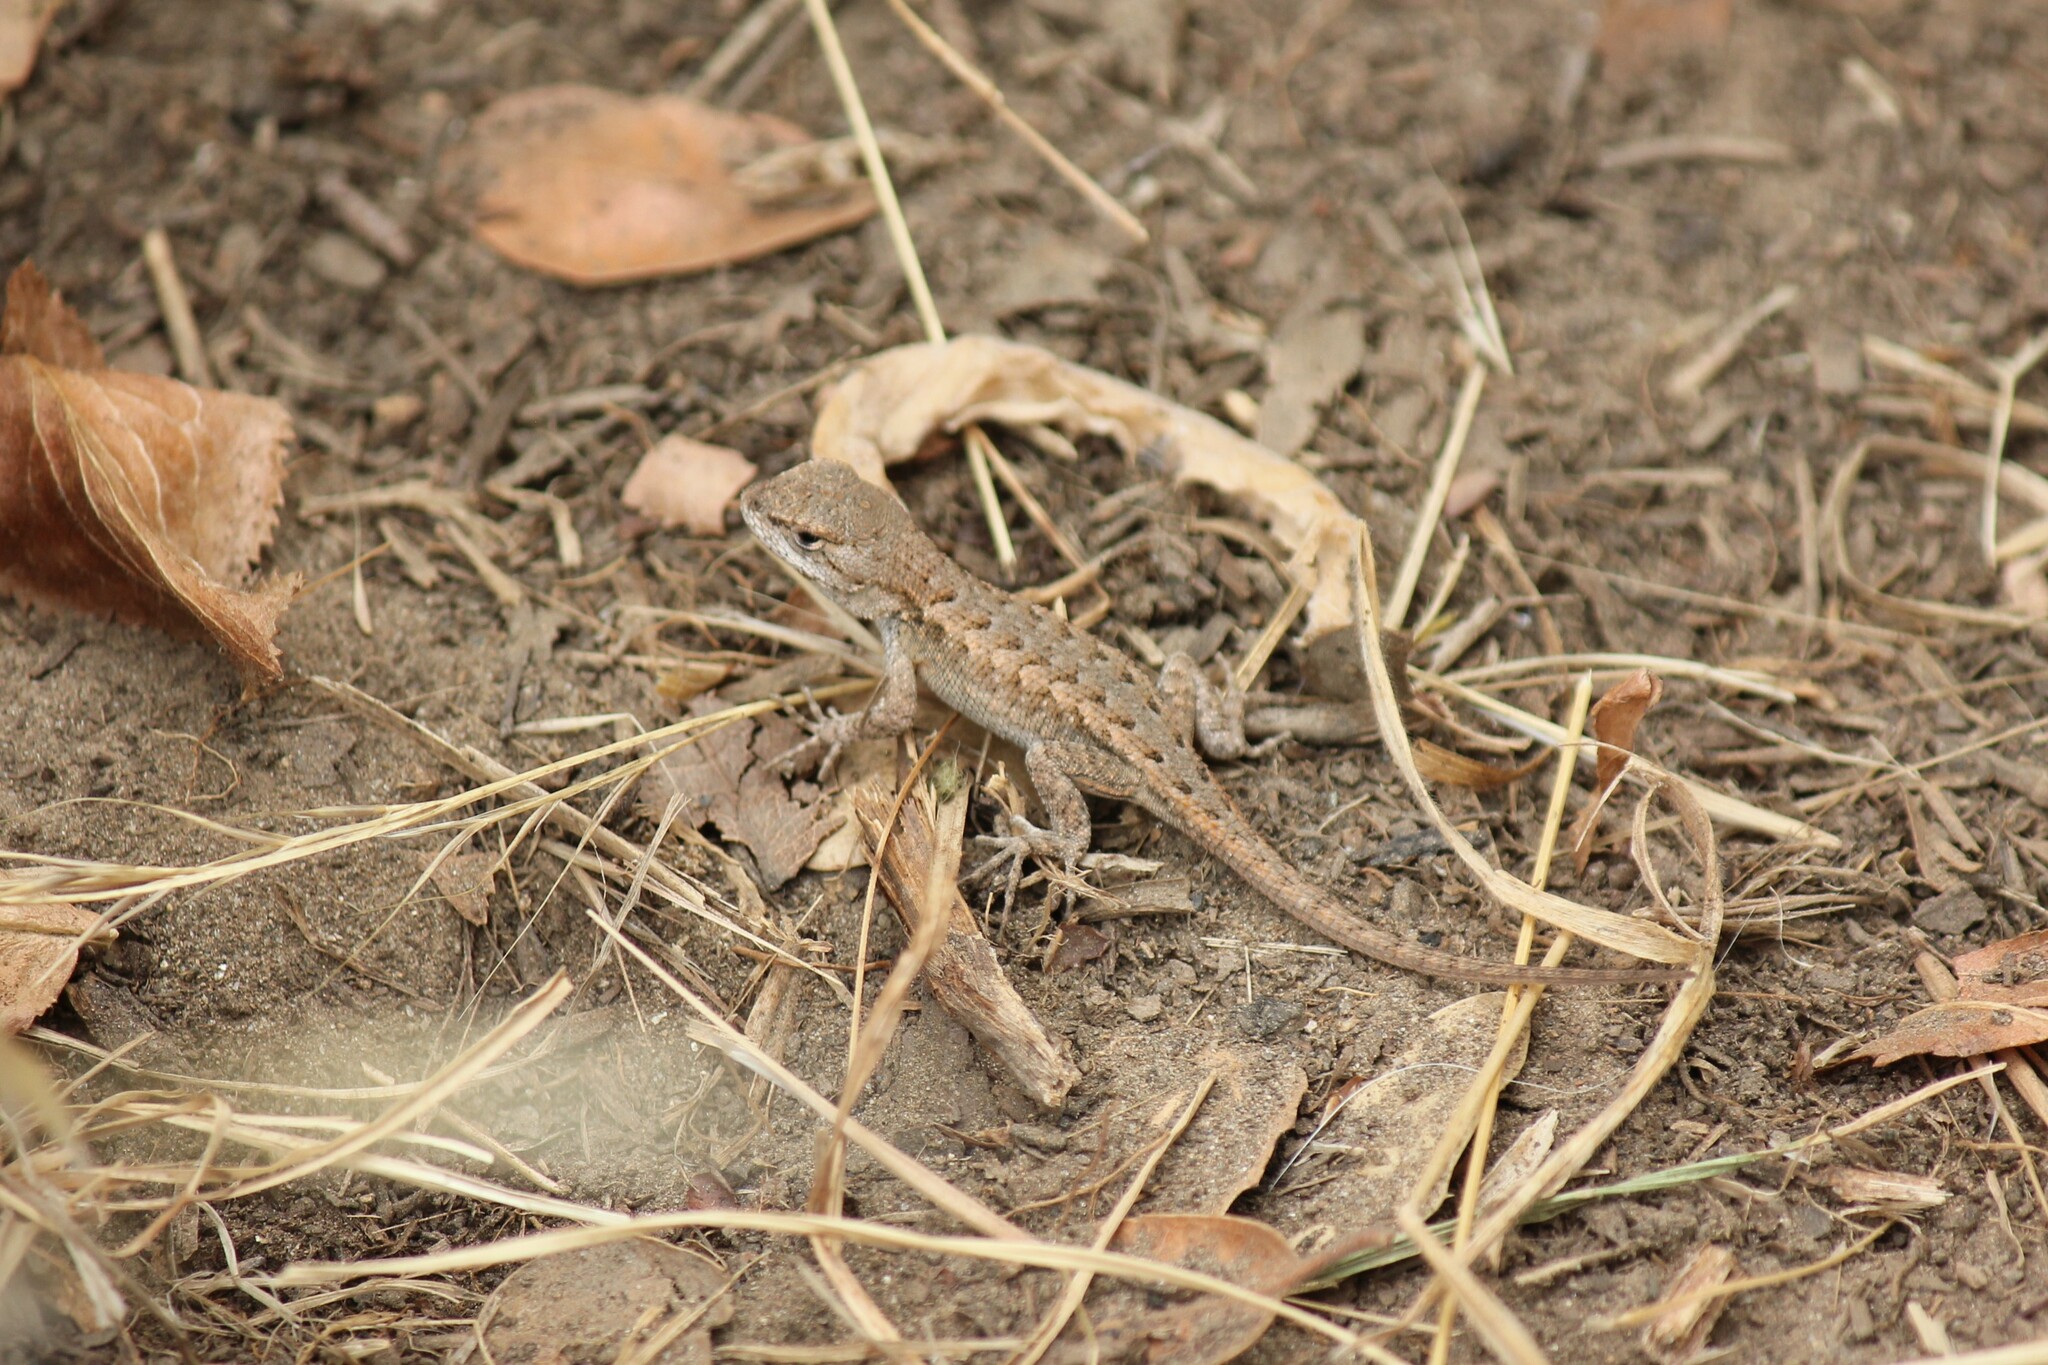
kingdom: Animalia
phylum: Chordata
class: Squamata
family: Phrynosomatidae
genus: Sceloporus
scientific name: Sceloporus occidentalis
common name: Western fence lizard
